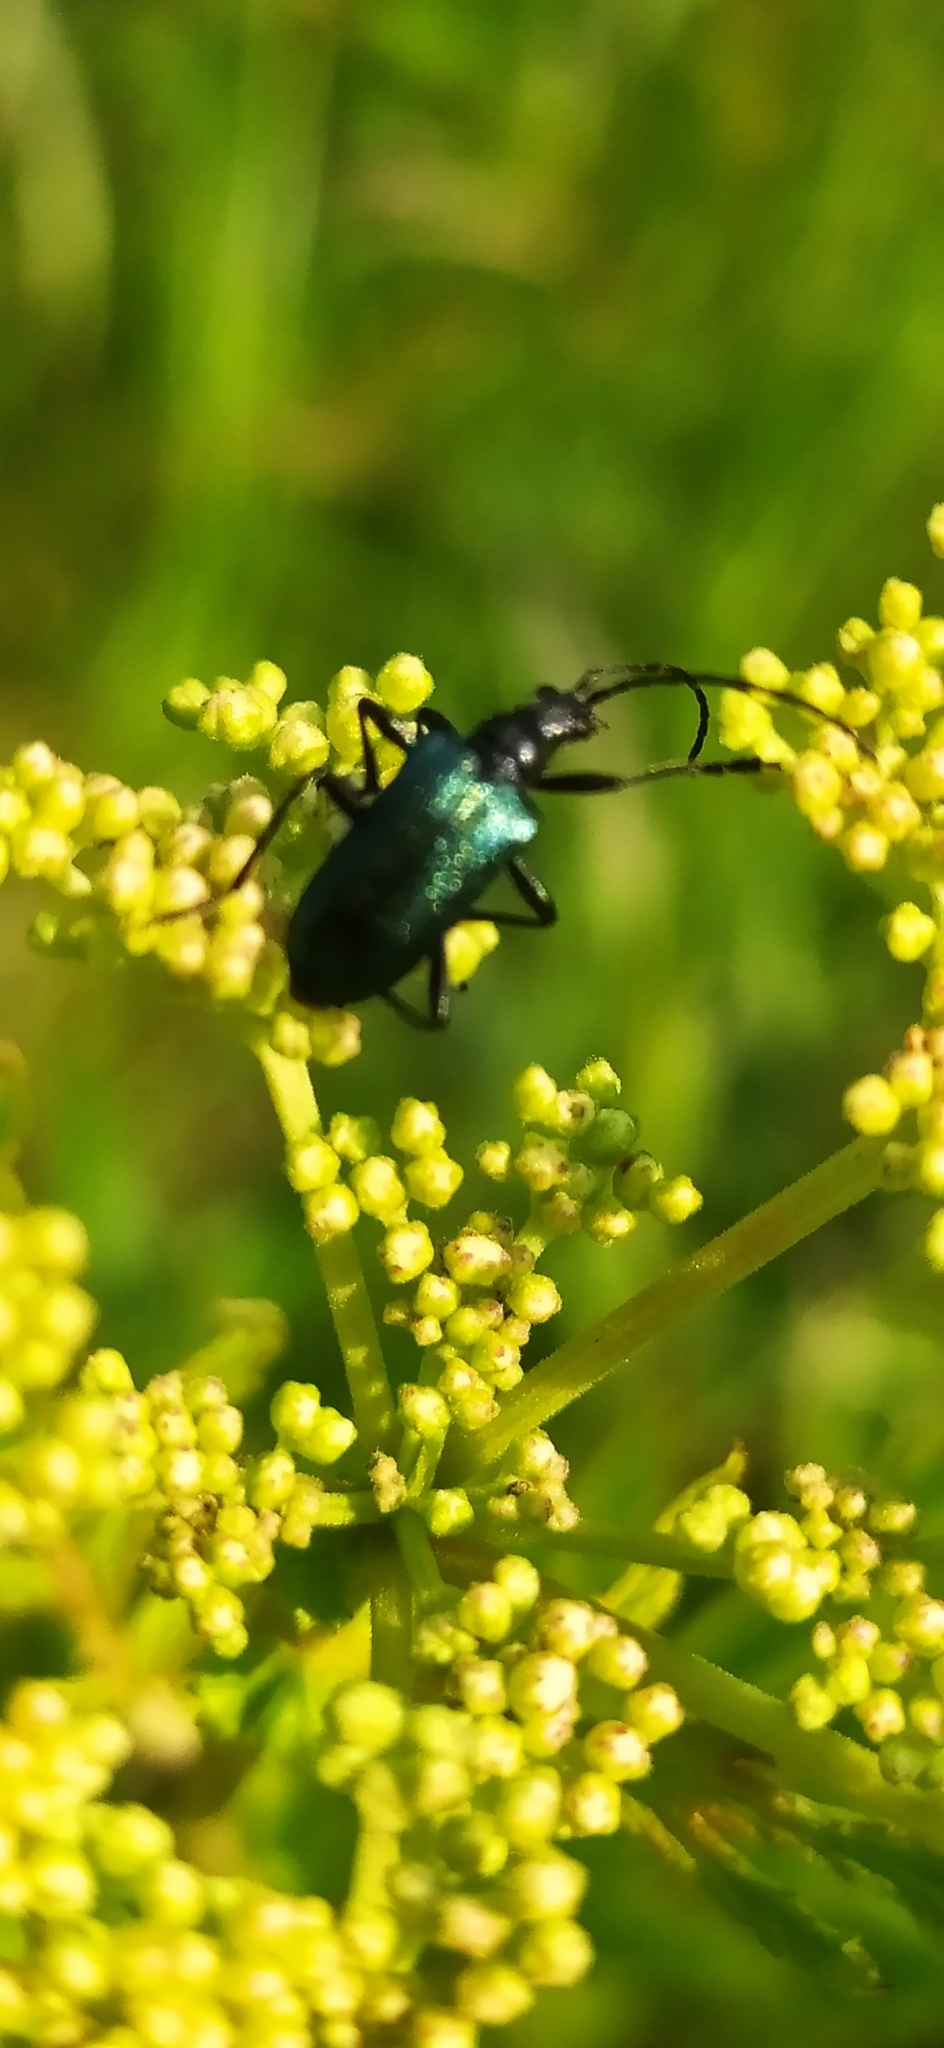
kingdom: Animalia
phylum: Arthropoda
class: Insecta
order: Coleoptera
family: Cerambycidae
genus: Gaurotes
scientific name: Gaurotes virginea
